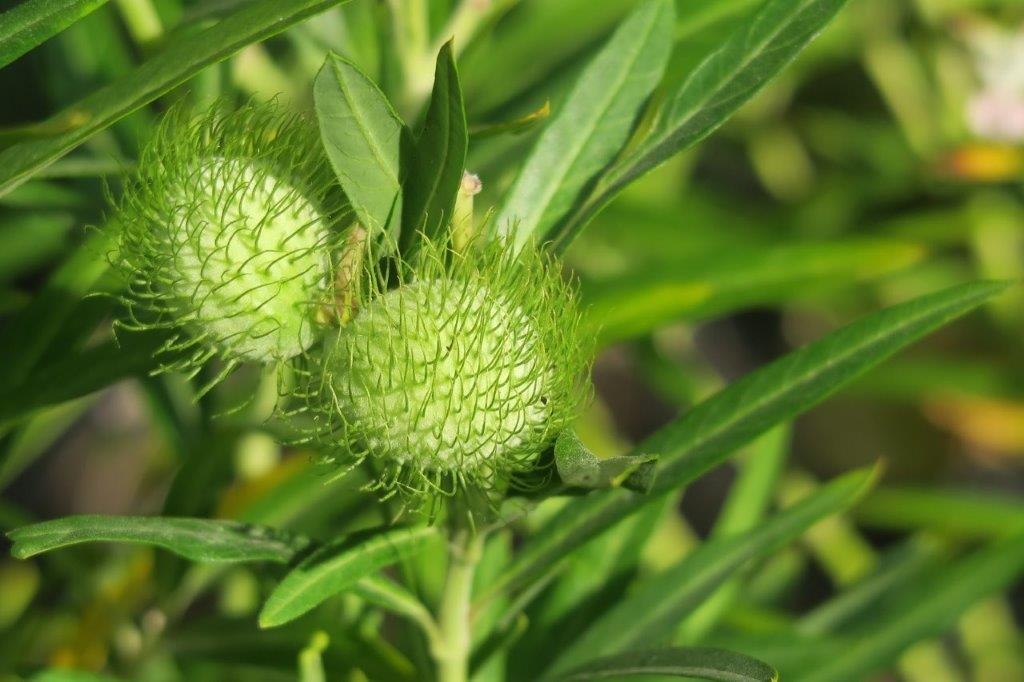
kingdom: Plantae
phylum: Tracheophyta
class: Magnoliopsida
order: Gentianales
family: Apocynaceae
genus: Gomphocarpus
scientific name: Gomphocarpus physocarpus
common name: Balloon cotton bush
